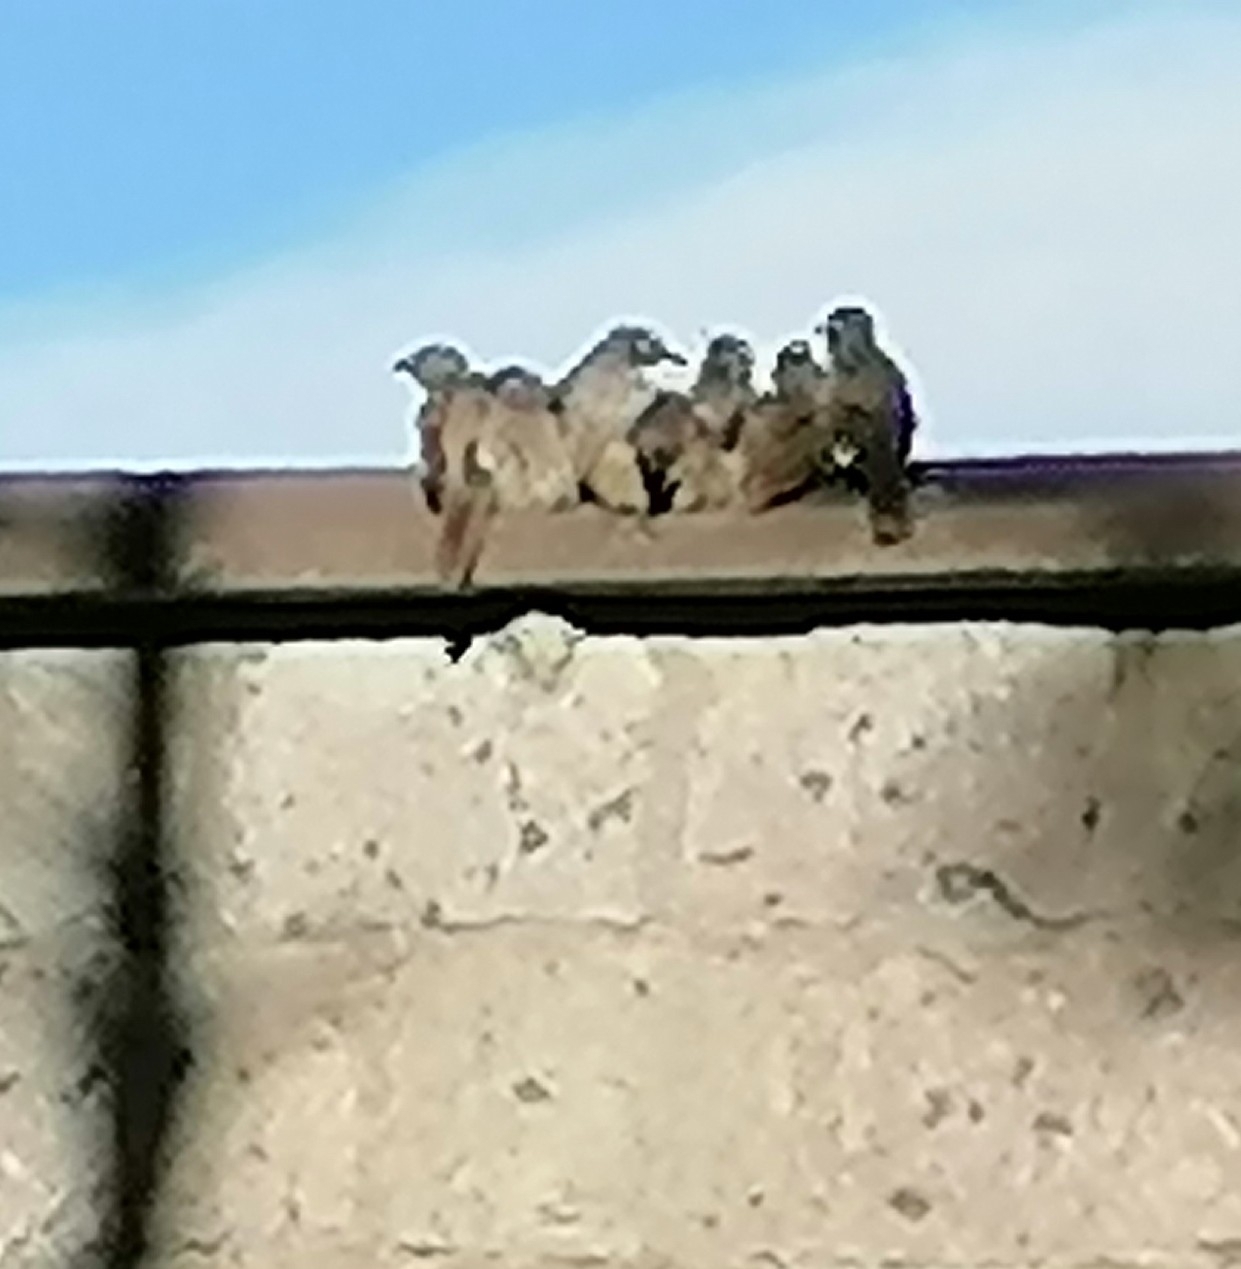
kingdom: Animalia
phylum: Chordata
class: Aves
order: Passeriformes
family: Leiothrichidae
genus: Turdoides
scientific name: Turdoides jardineii
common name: Arrow-marked babbler
